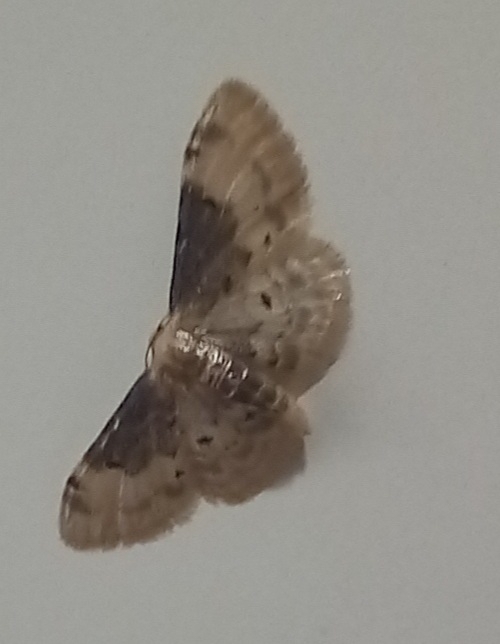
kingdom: Animalia
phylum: Arthropoda
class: Insecta
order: Lepidoptera
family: Geometridae
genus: Idaea
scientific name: Idaea filicata
